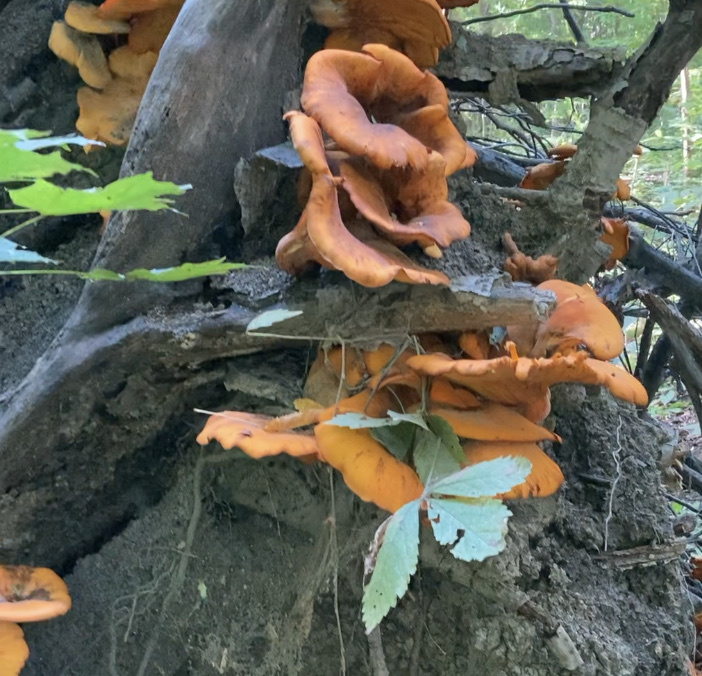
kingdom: Fungi
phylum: Basidiomycota
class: Agaricomycetes
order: Agaricales
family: Omphalotaceae
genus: Omphalotus
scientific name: Omphalotus illudens
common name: Jack o lantern
